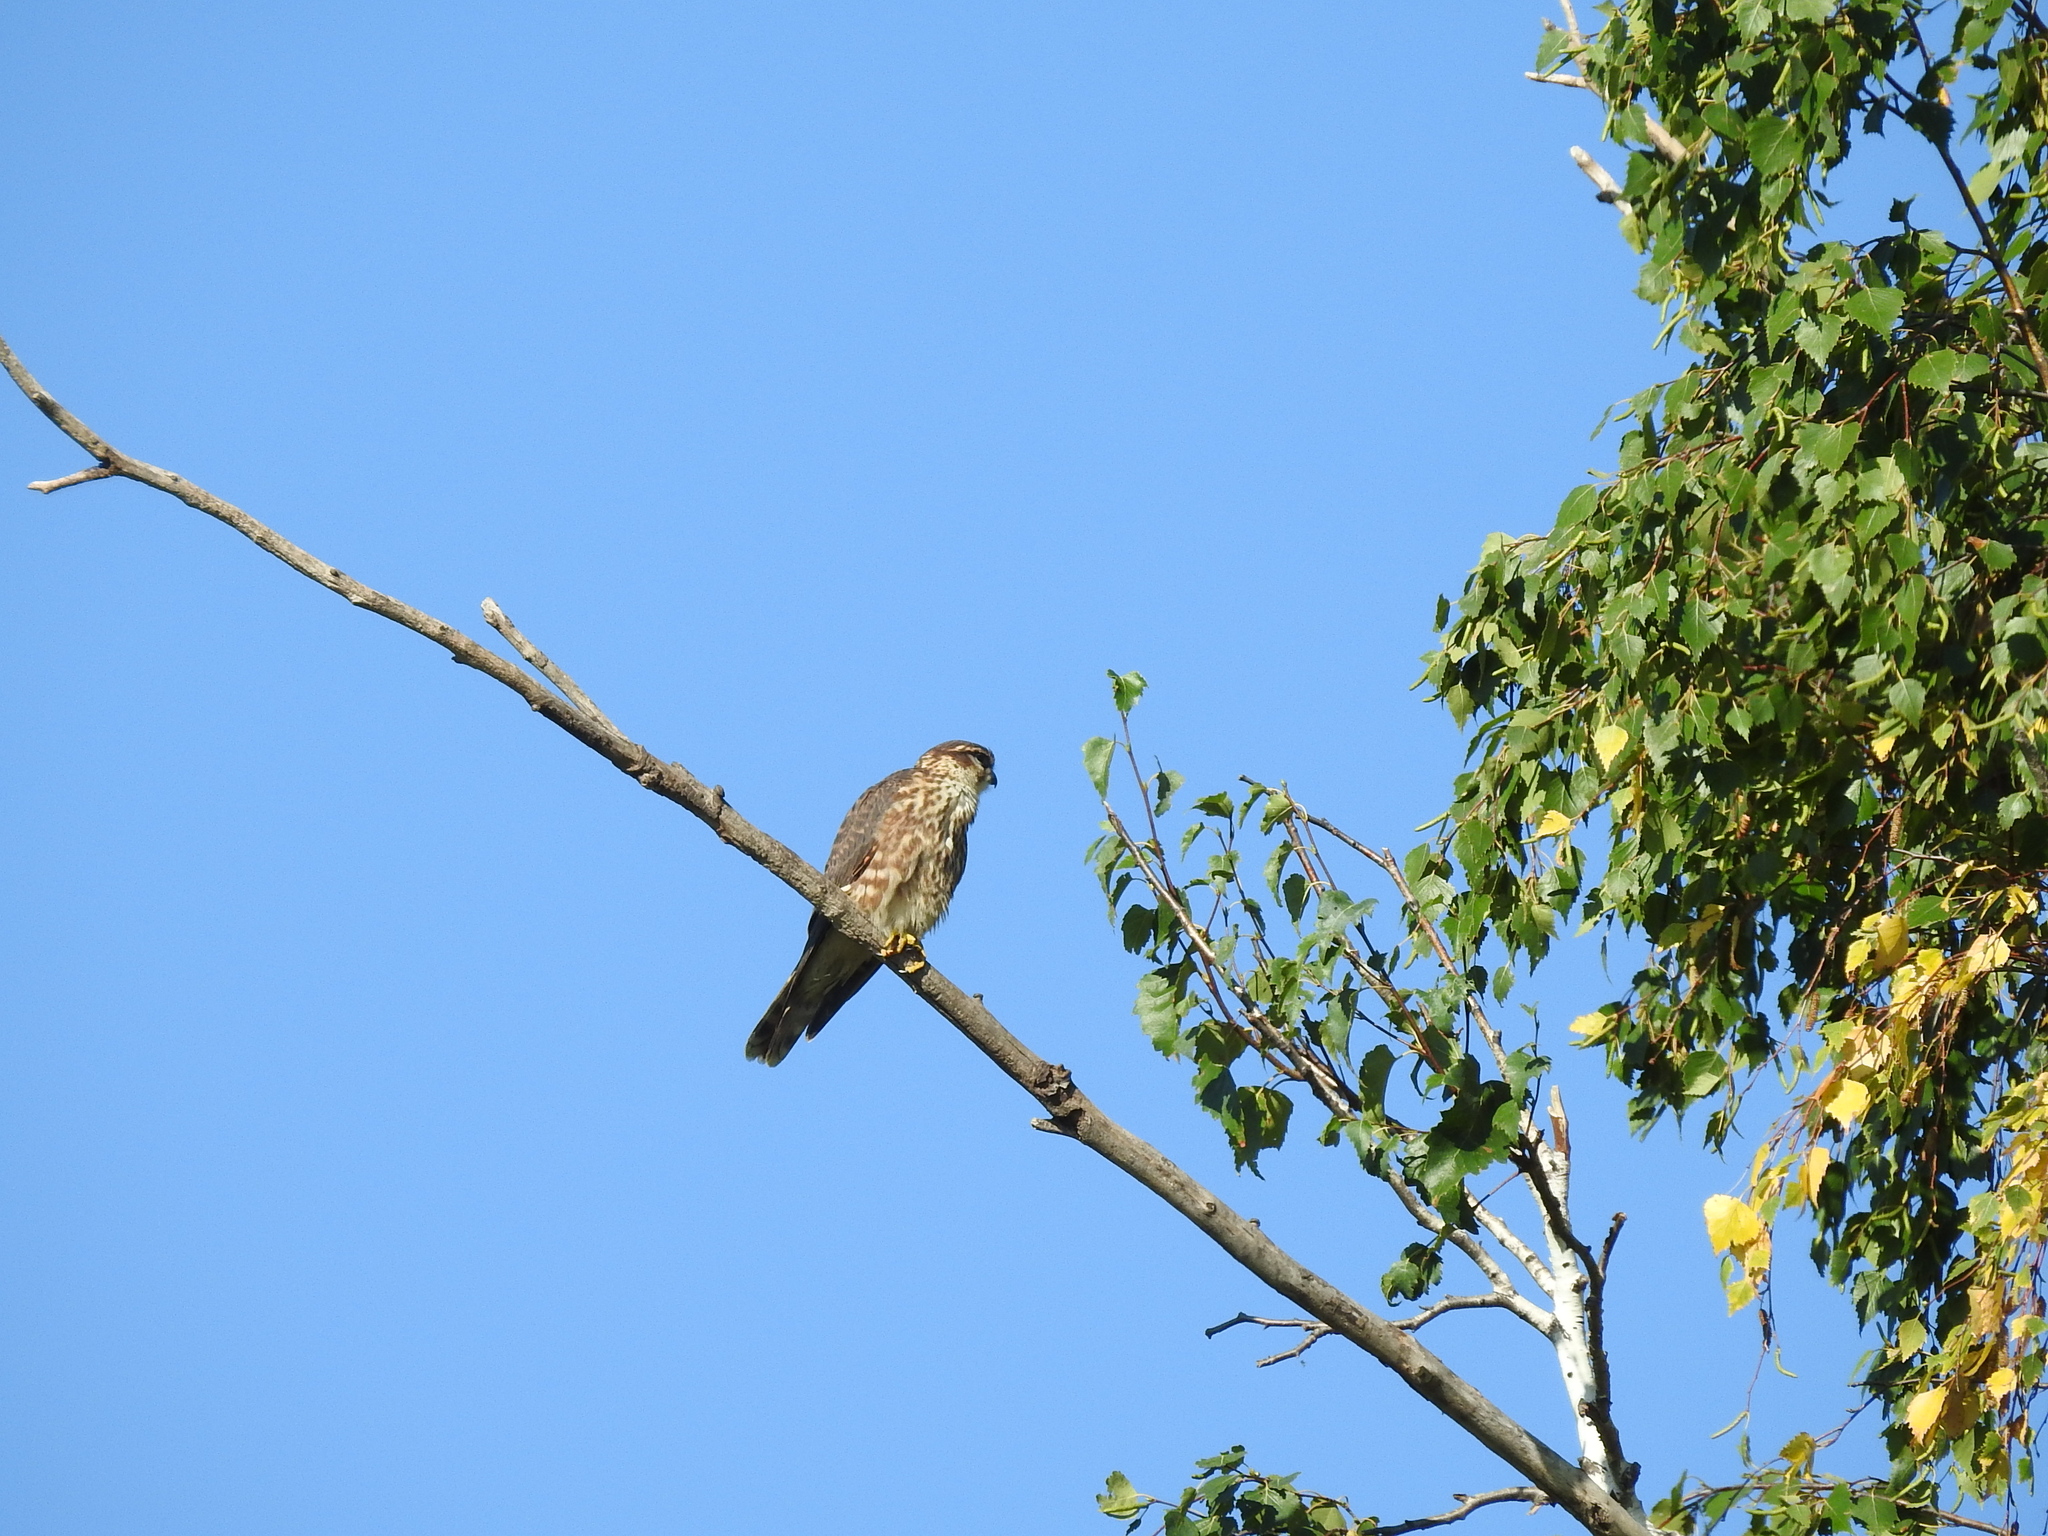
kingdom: Animalia
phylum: Chordata
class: Aves
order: Falconiformes
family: Falconidae
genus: Falco
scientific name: Falco columbarius
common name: Merlin
